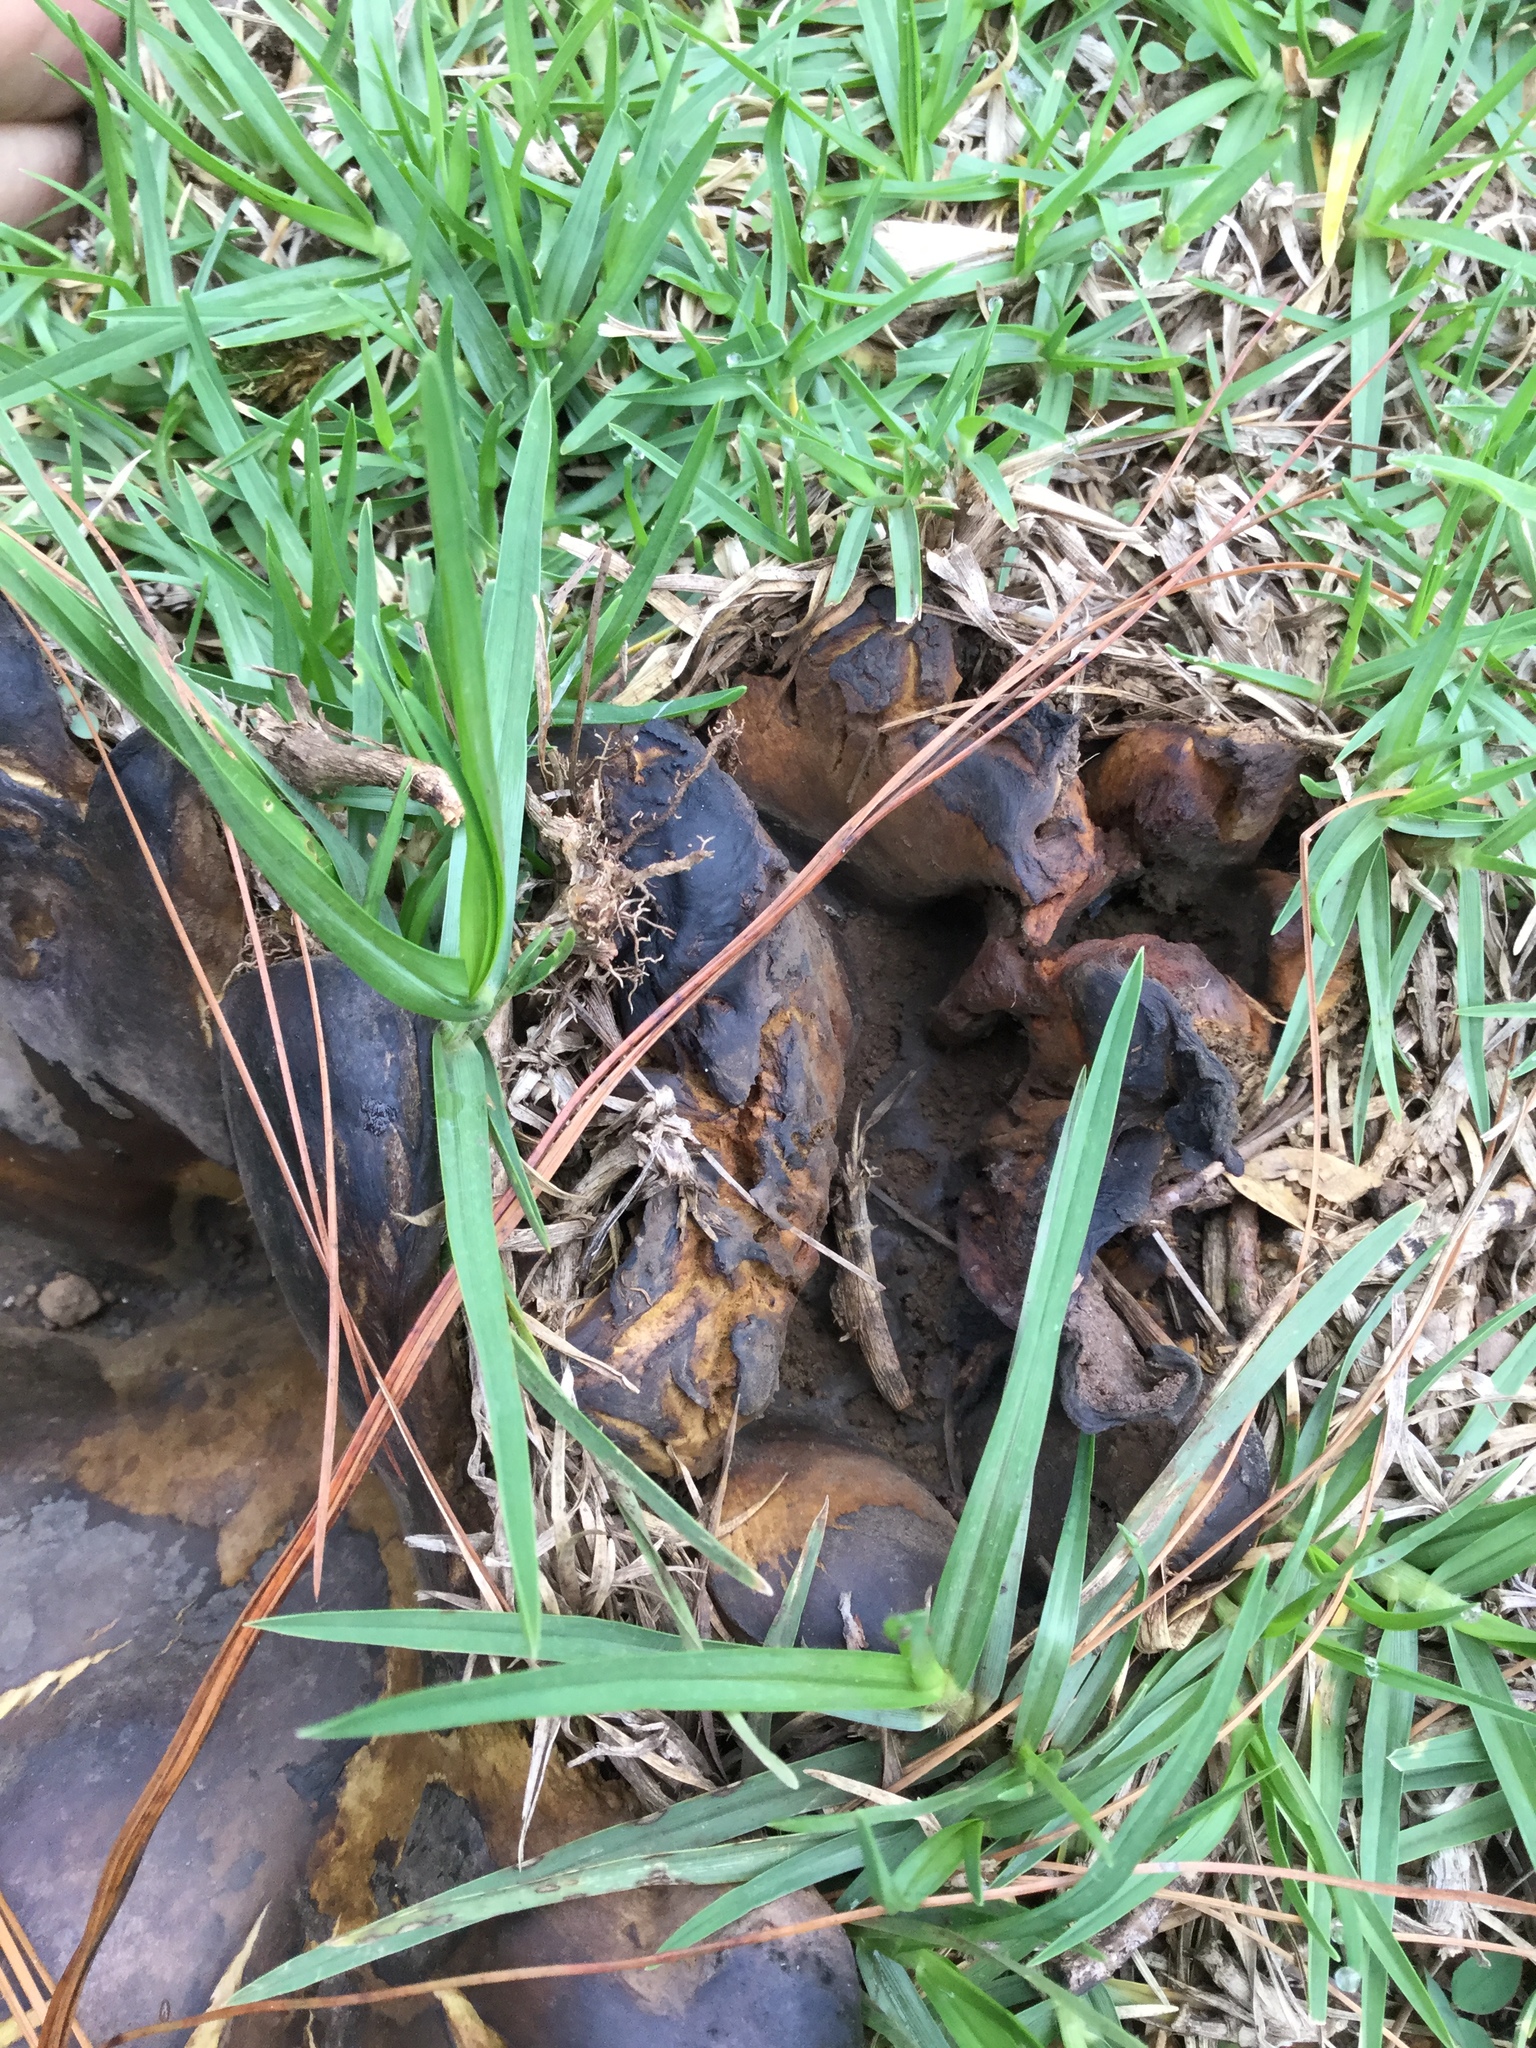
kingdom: Fungi
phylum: Basidiomycota
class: Agaricomycetes
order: Boletales
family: Sclerodermataceae
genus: Scleroderma
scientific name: Scleroderma polyrhizum
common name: Many-rooted earthball
